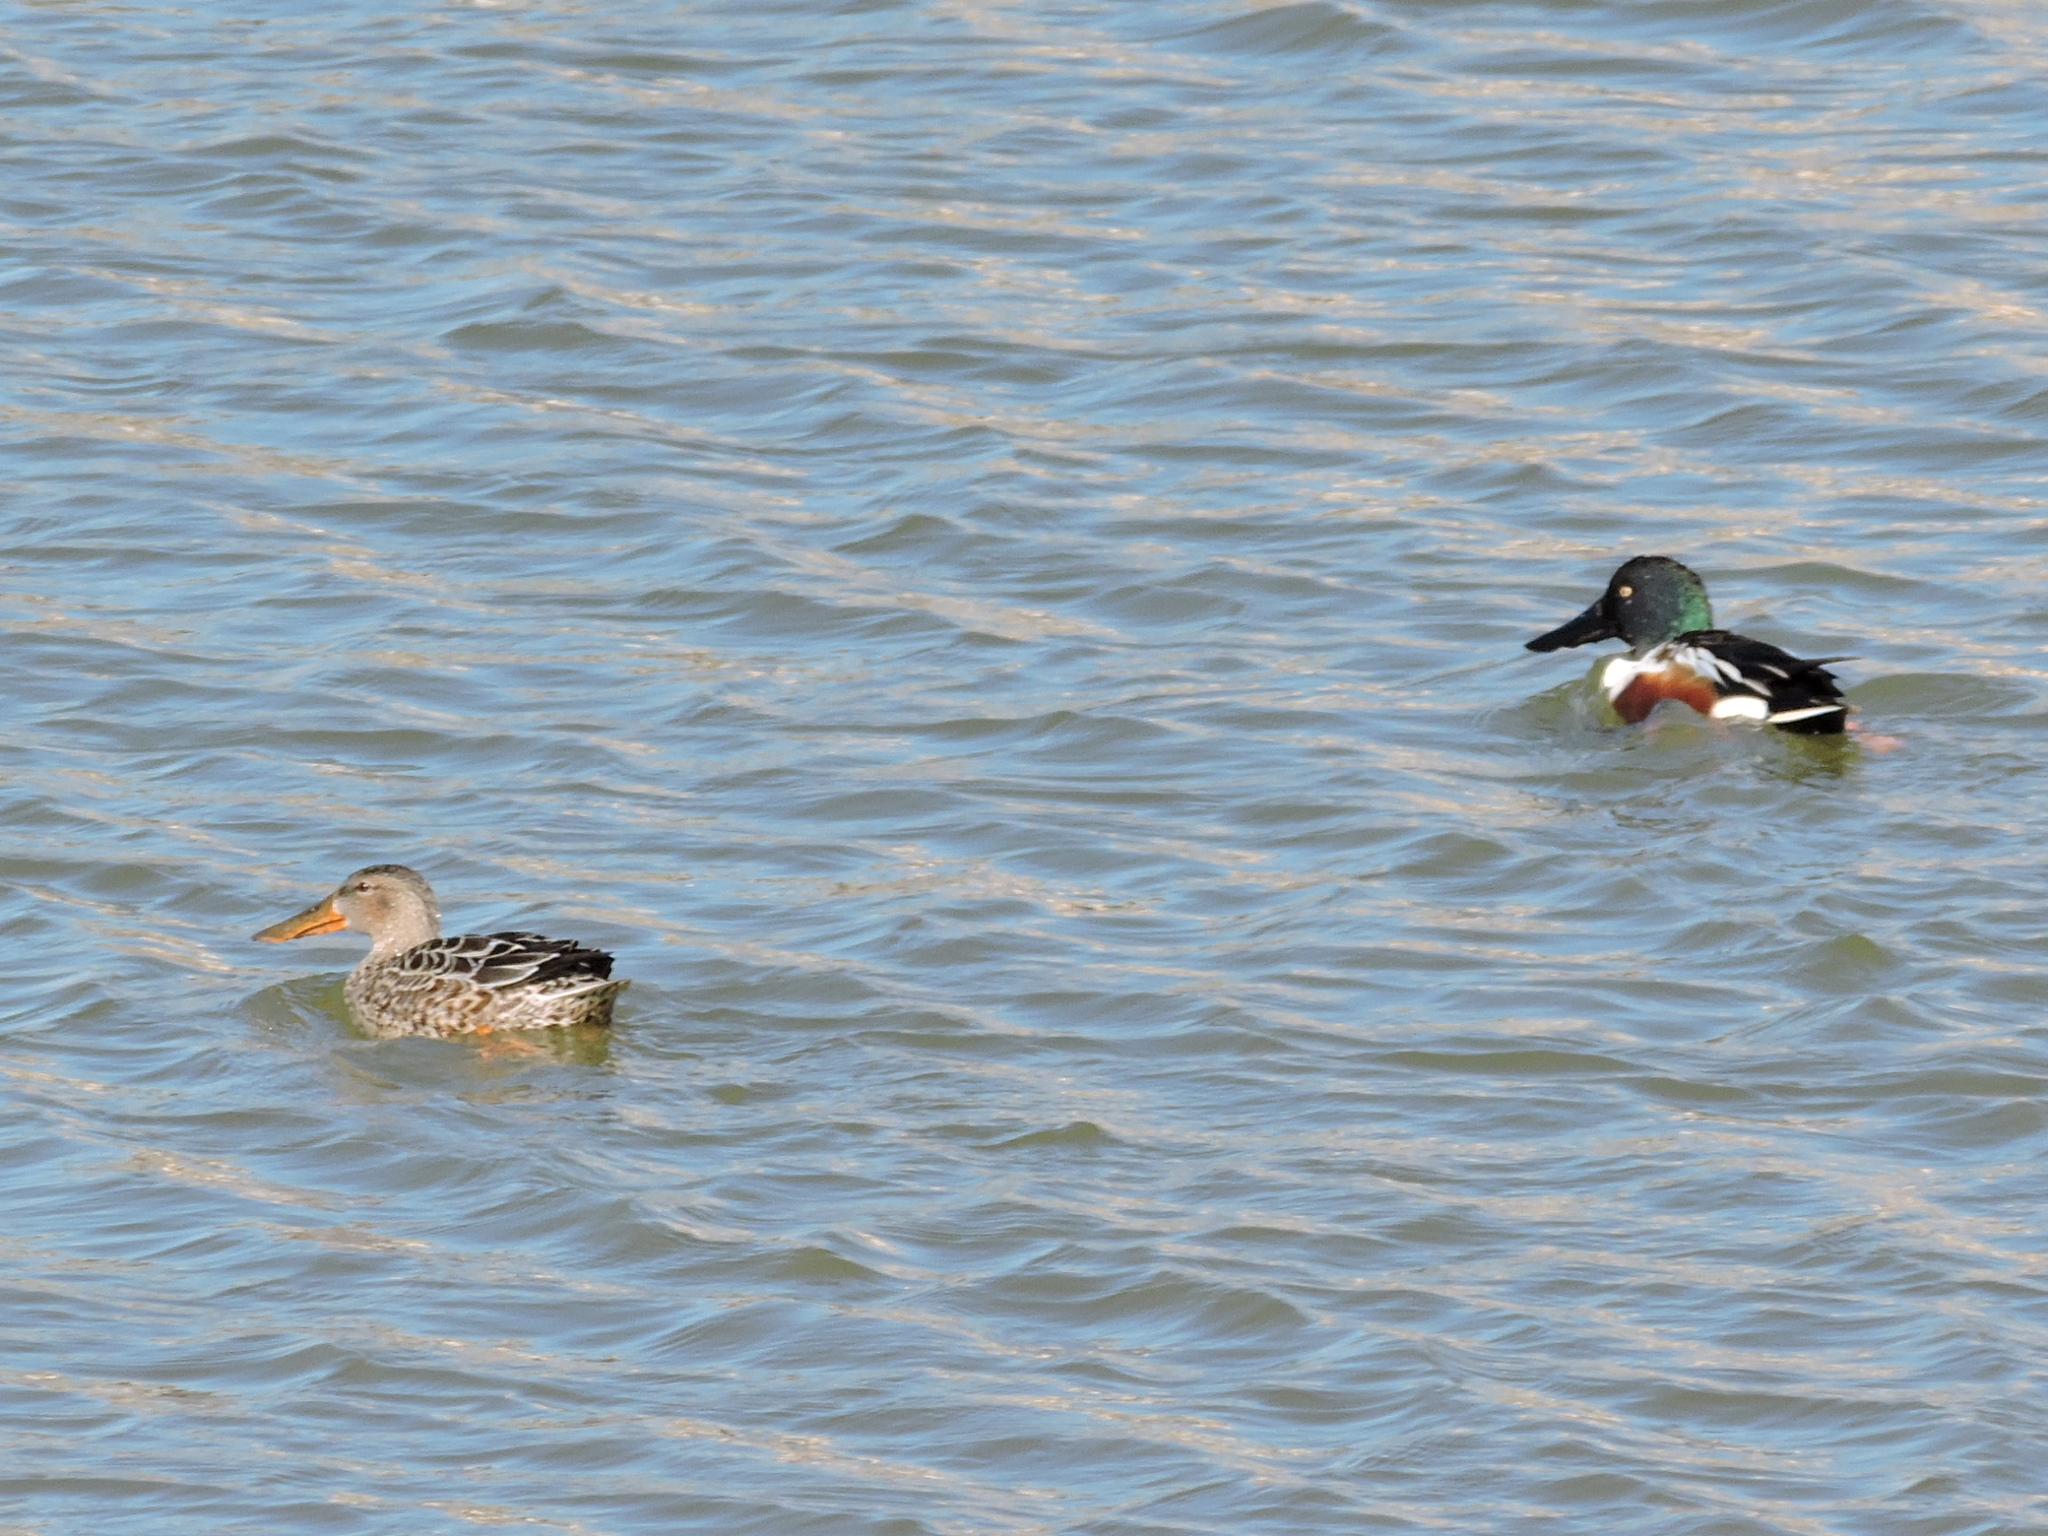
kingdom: Animalia
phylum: Chordata
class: Aves
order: Anseriformes
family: Anatidae
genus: Spatula
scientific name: Spatula clypeata
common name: Northern shoveler
